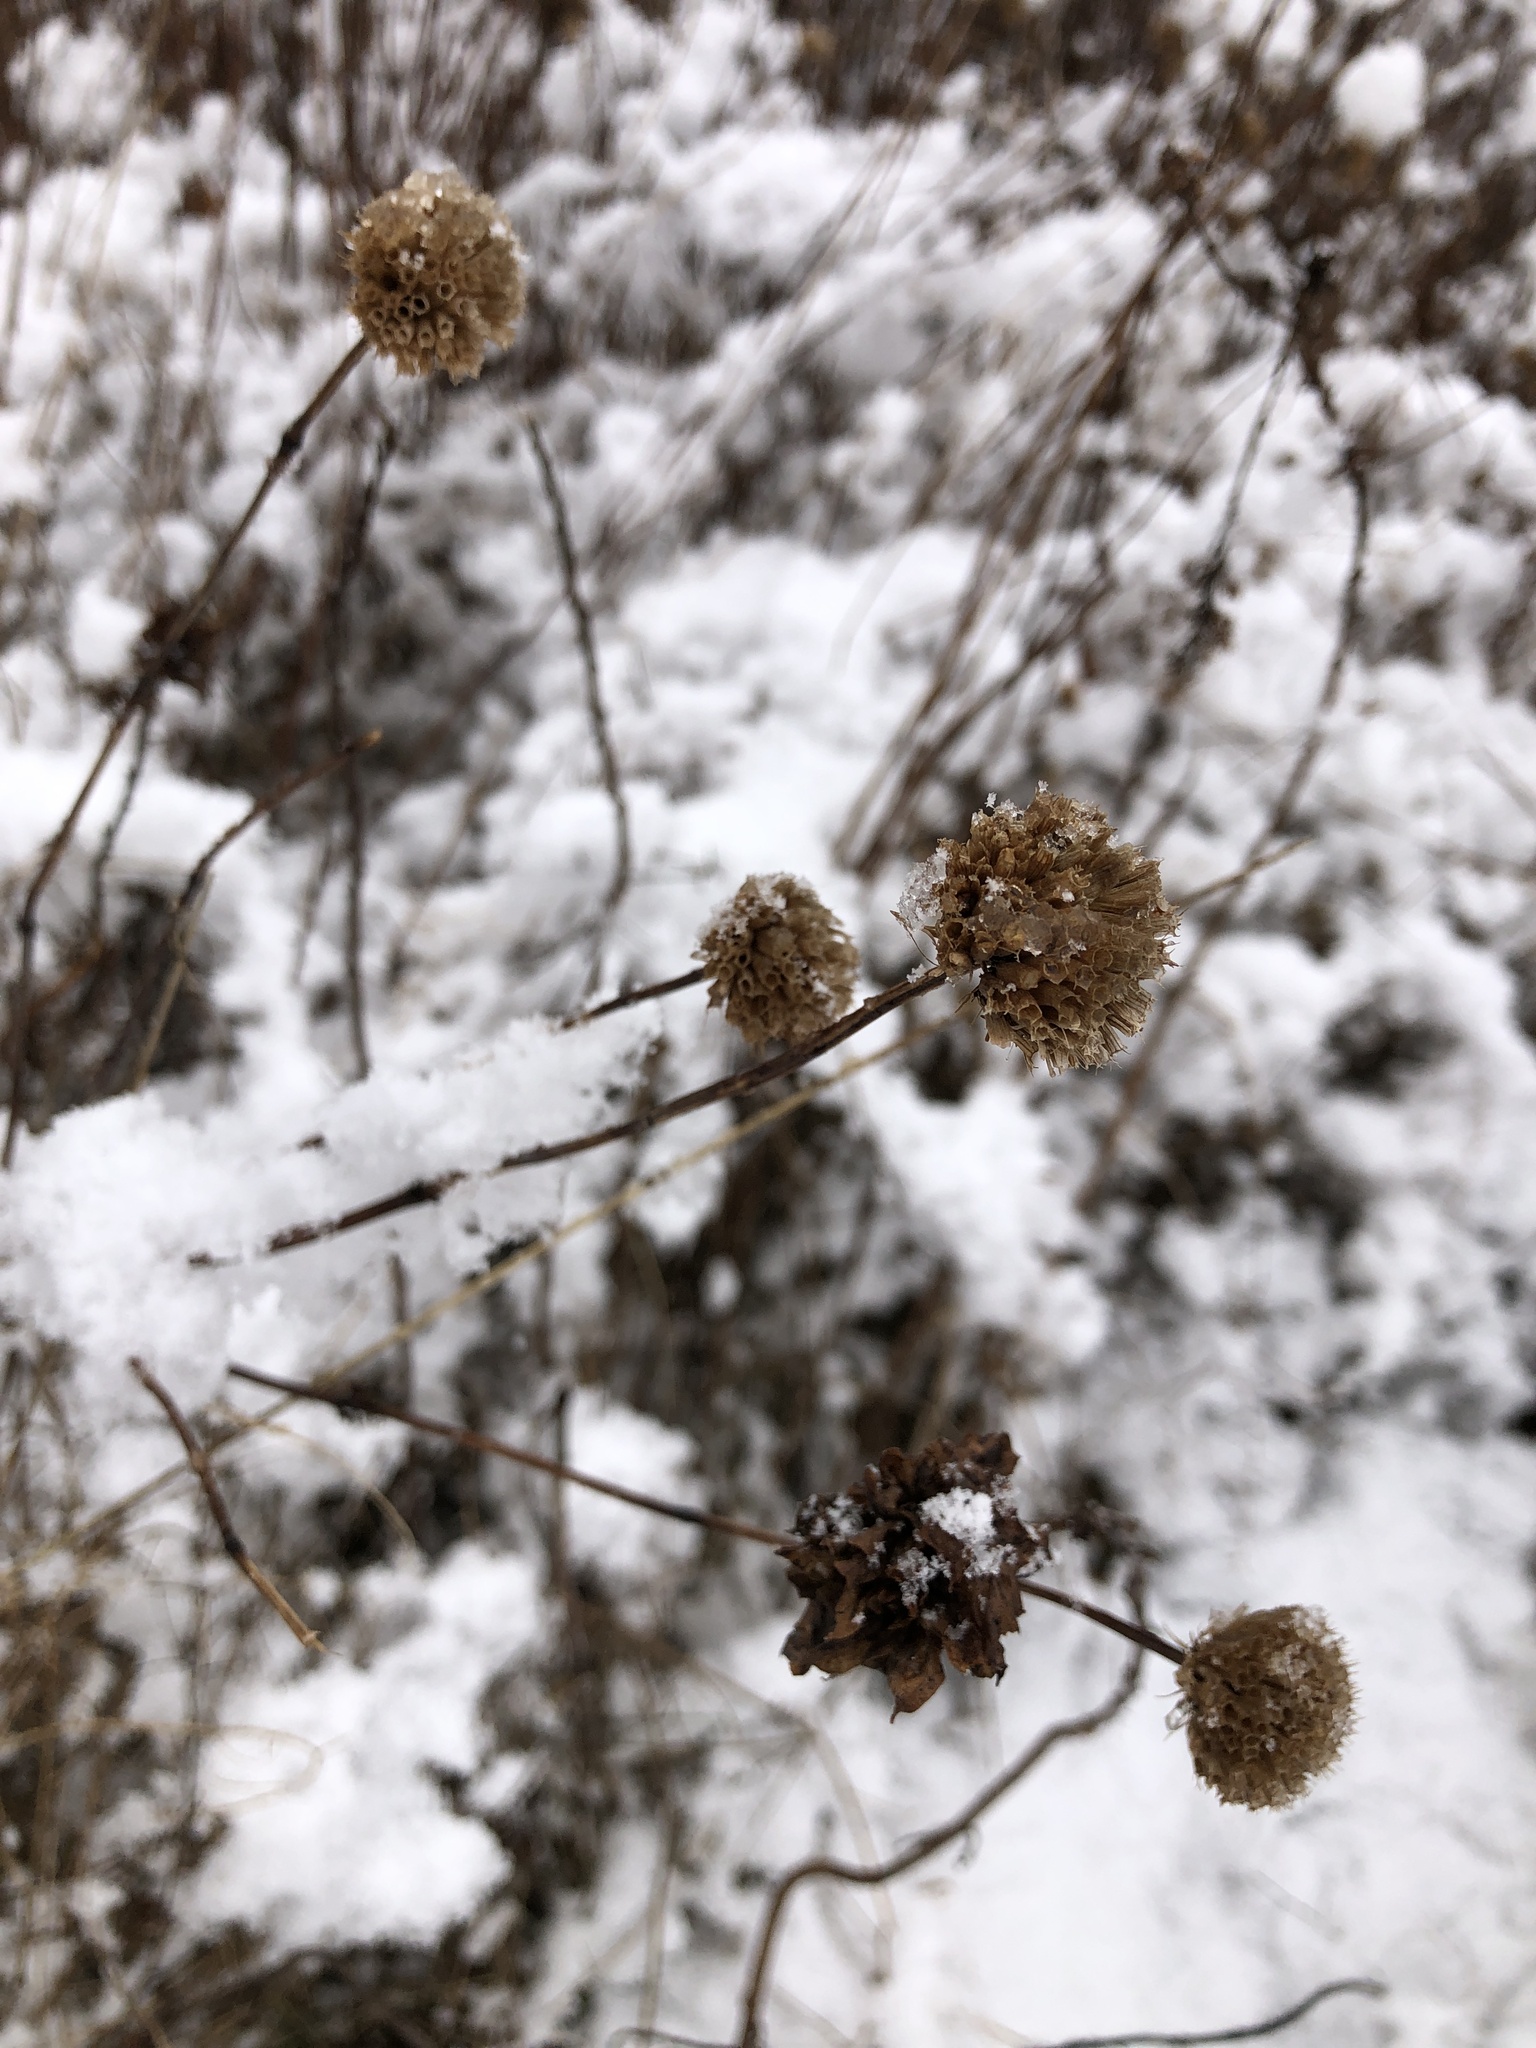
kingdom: Plantae
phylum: Tracheophyta
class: Magnoliopsida
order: Lamiales
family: Lamiaceae
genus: Monarda
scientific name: Monarda fistulosa
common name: Purple beebalm
